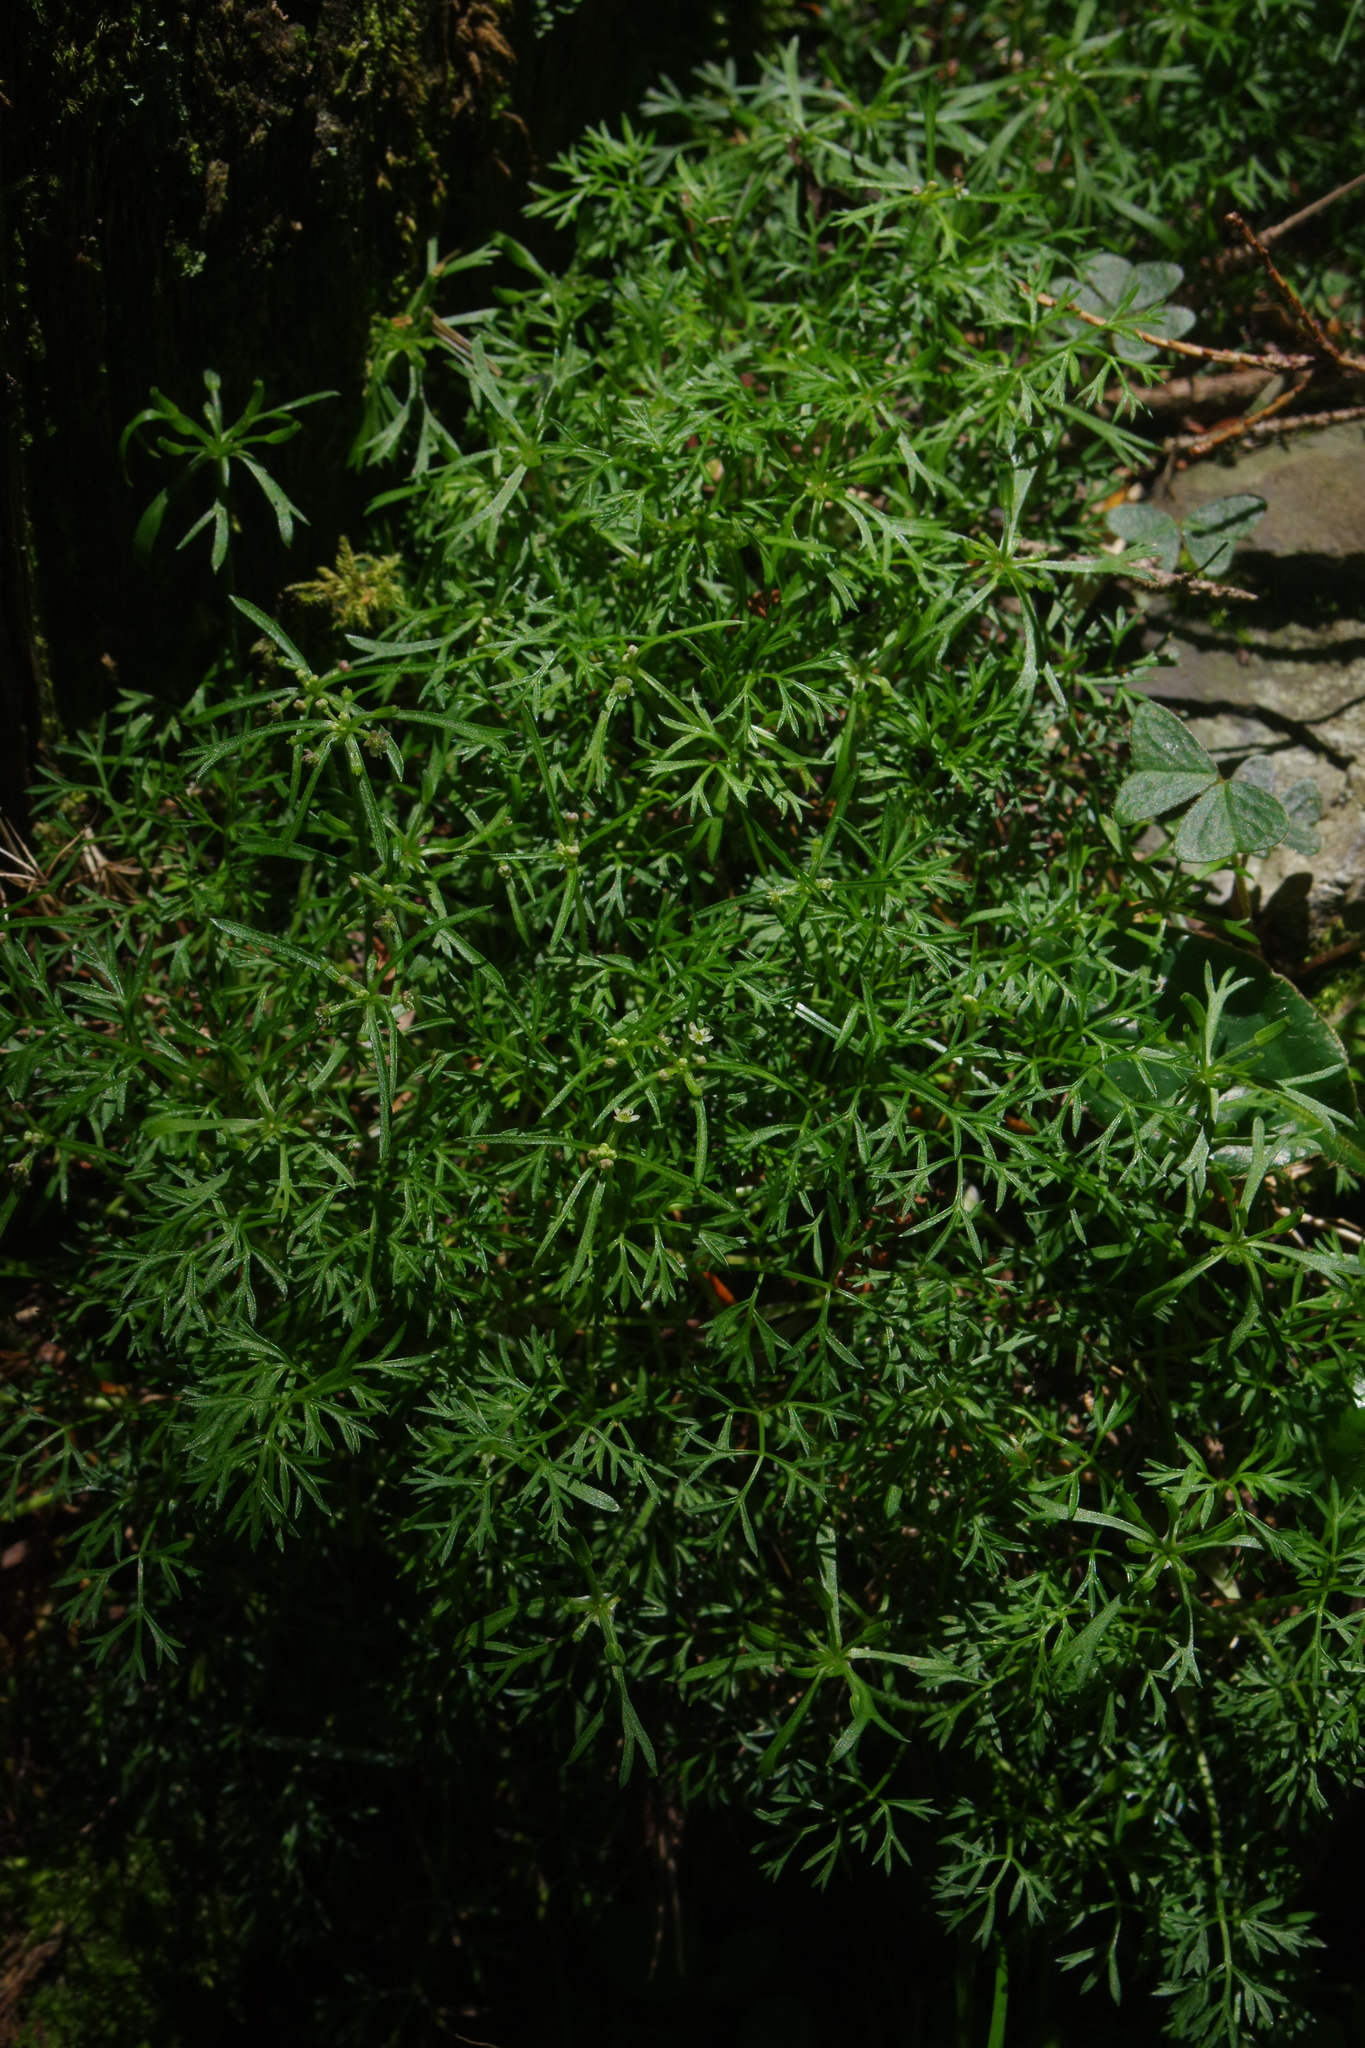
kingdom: Plantae
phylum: Tracheophyta
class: Magnoliopsida
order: Apiales
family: Apiaceae
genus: Chaerophyllum
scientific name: Chaerophyllum involucratum
